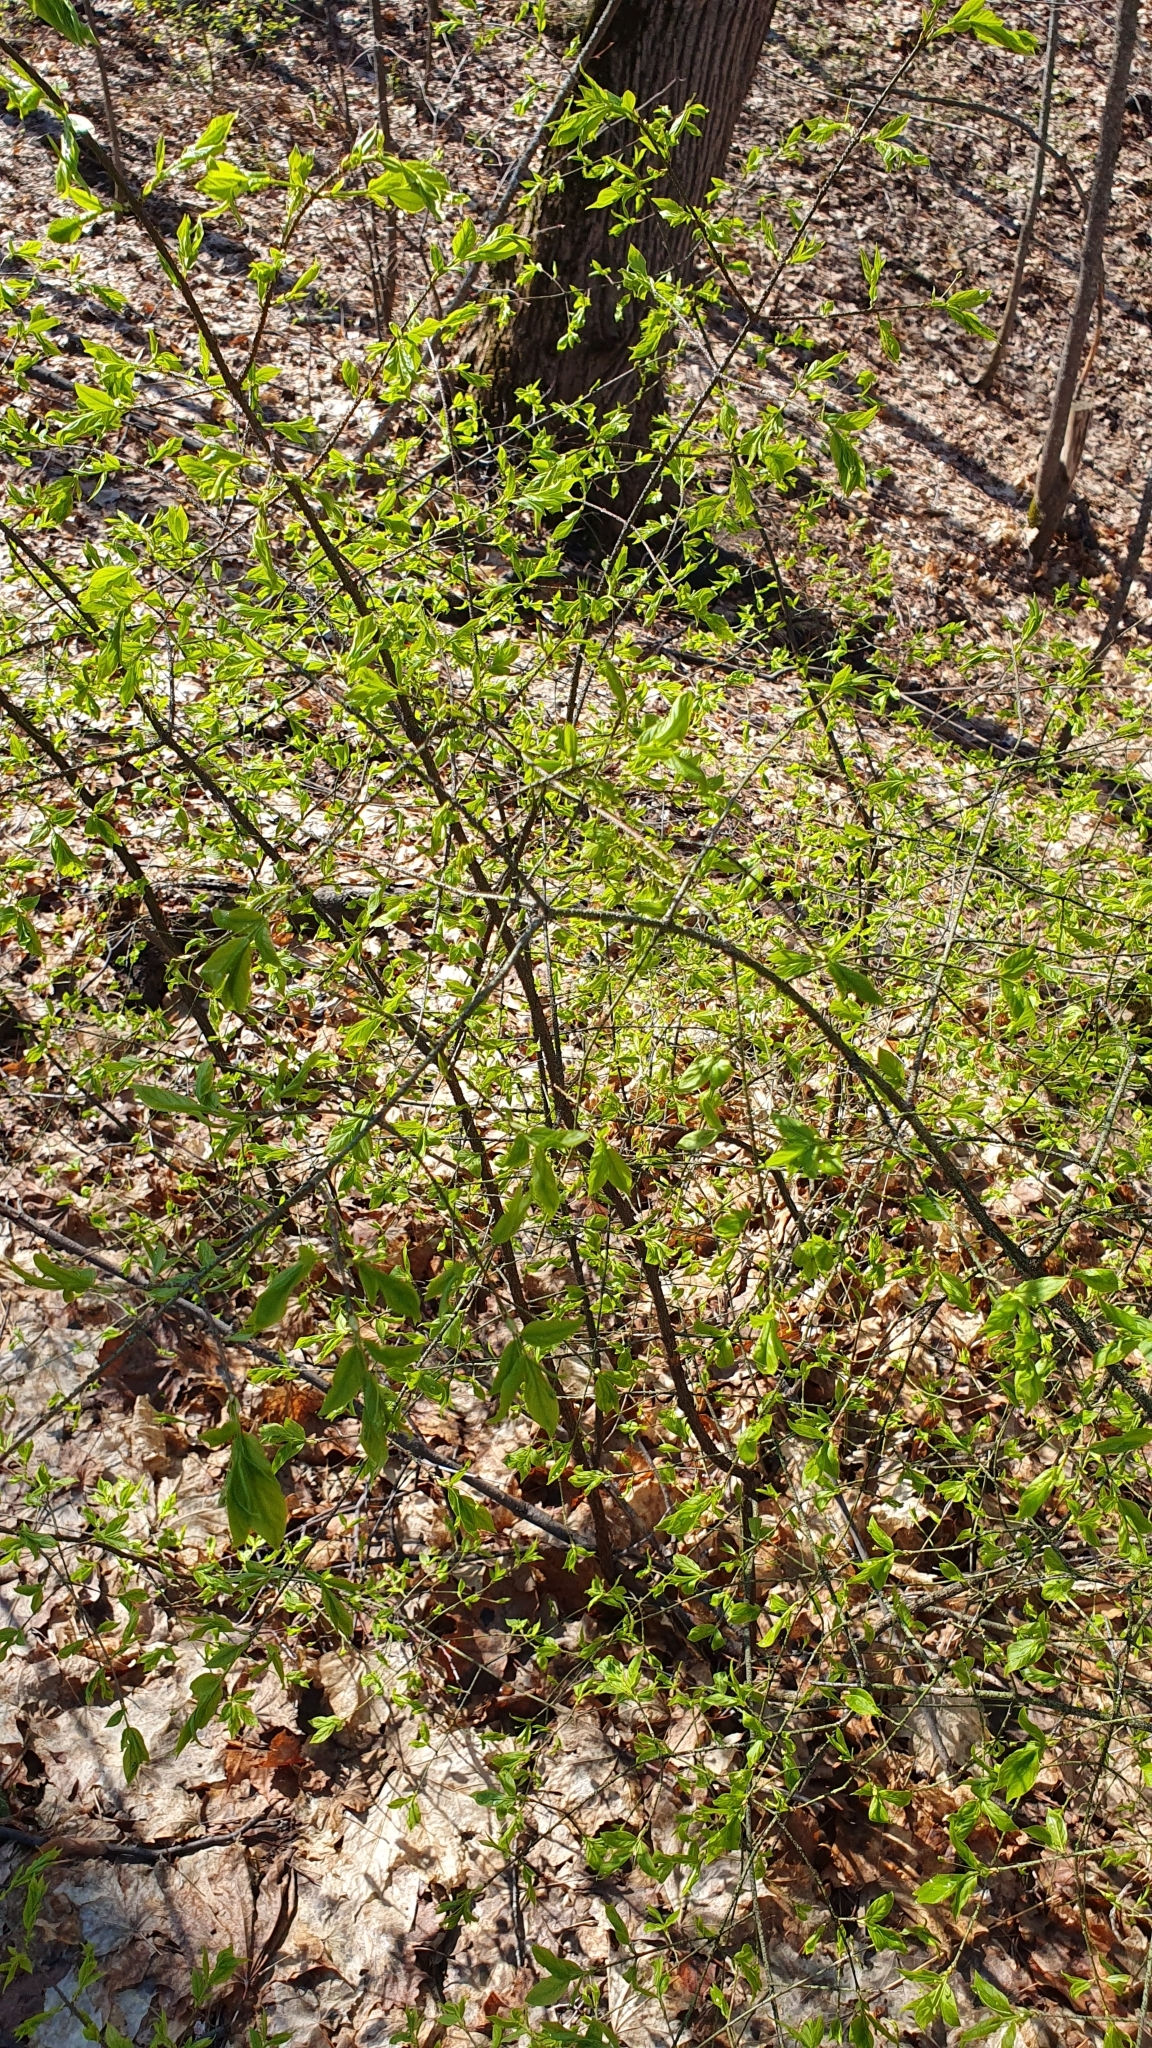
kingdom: Plantae
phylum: Tracheophyta
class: Magnoliopsida
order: Celastrales
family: Celastraceae
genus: Euonymus
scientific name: Euonymus verrucosus
